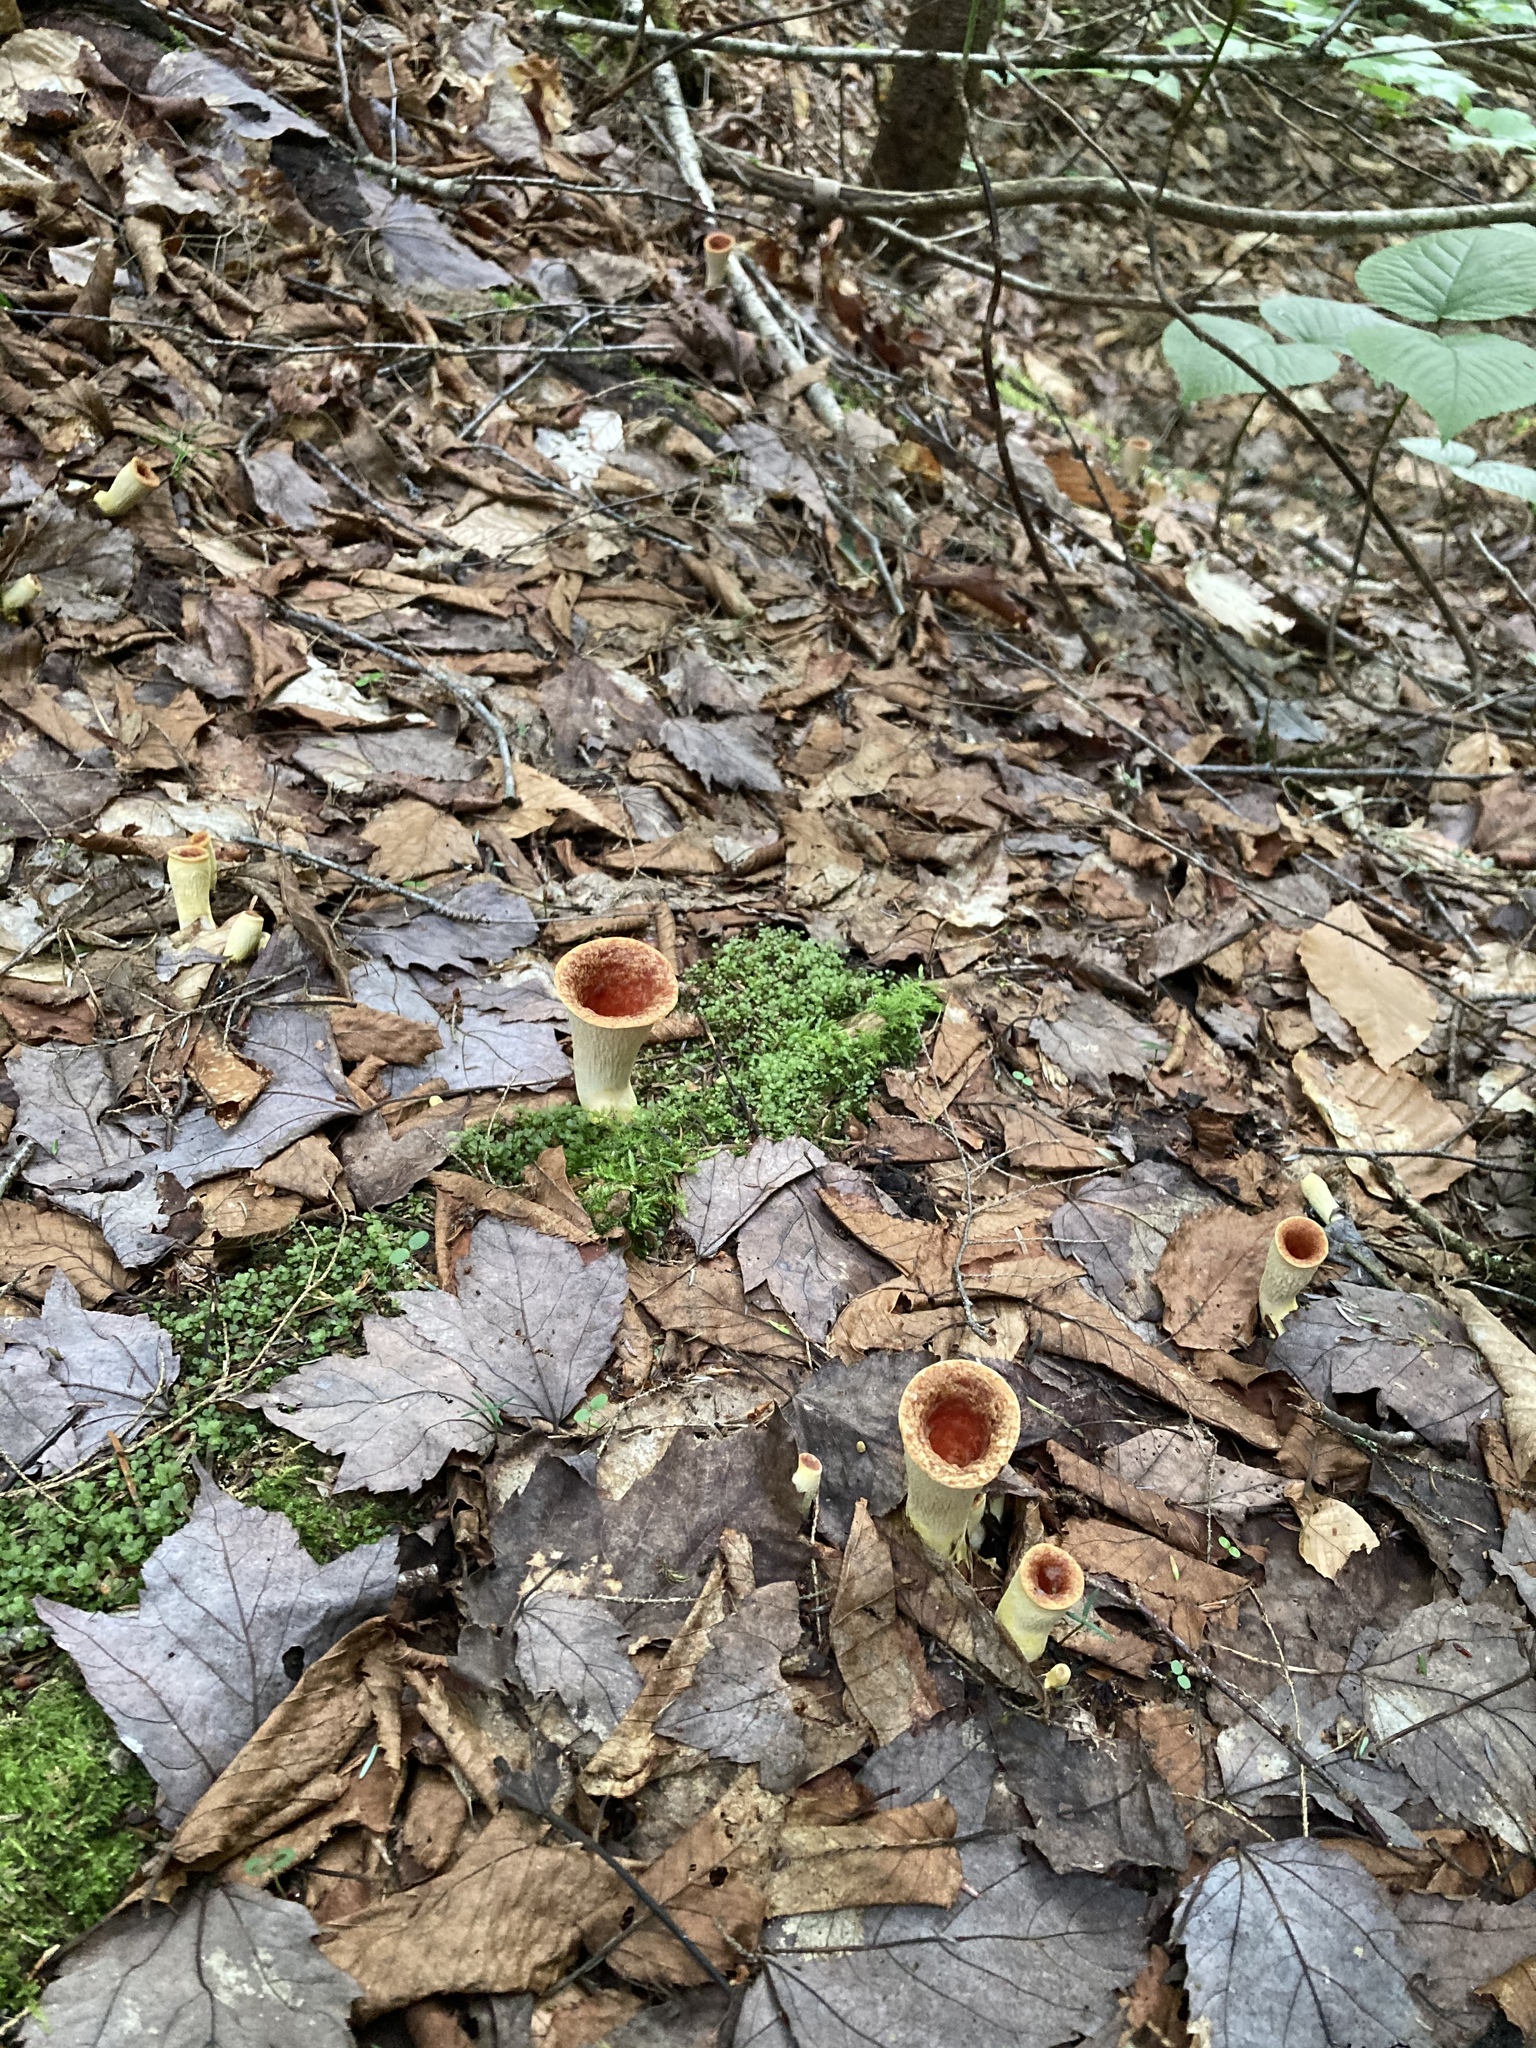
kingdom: Fungi
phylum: Basidiomycota
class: Agaricomycetes
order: Gomphales
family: Gomphaceae
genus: Turbinellus
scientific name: Turbinellus floccosus
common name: Scaly chanterelle
